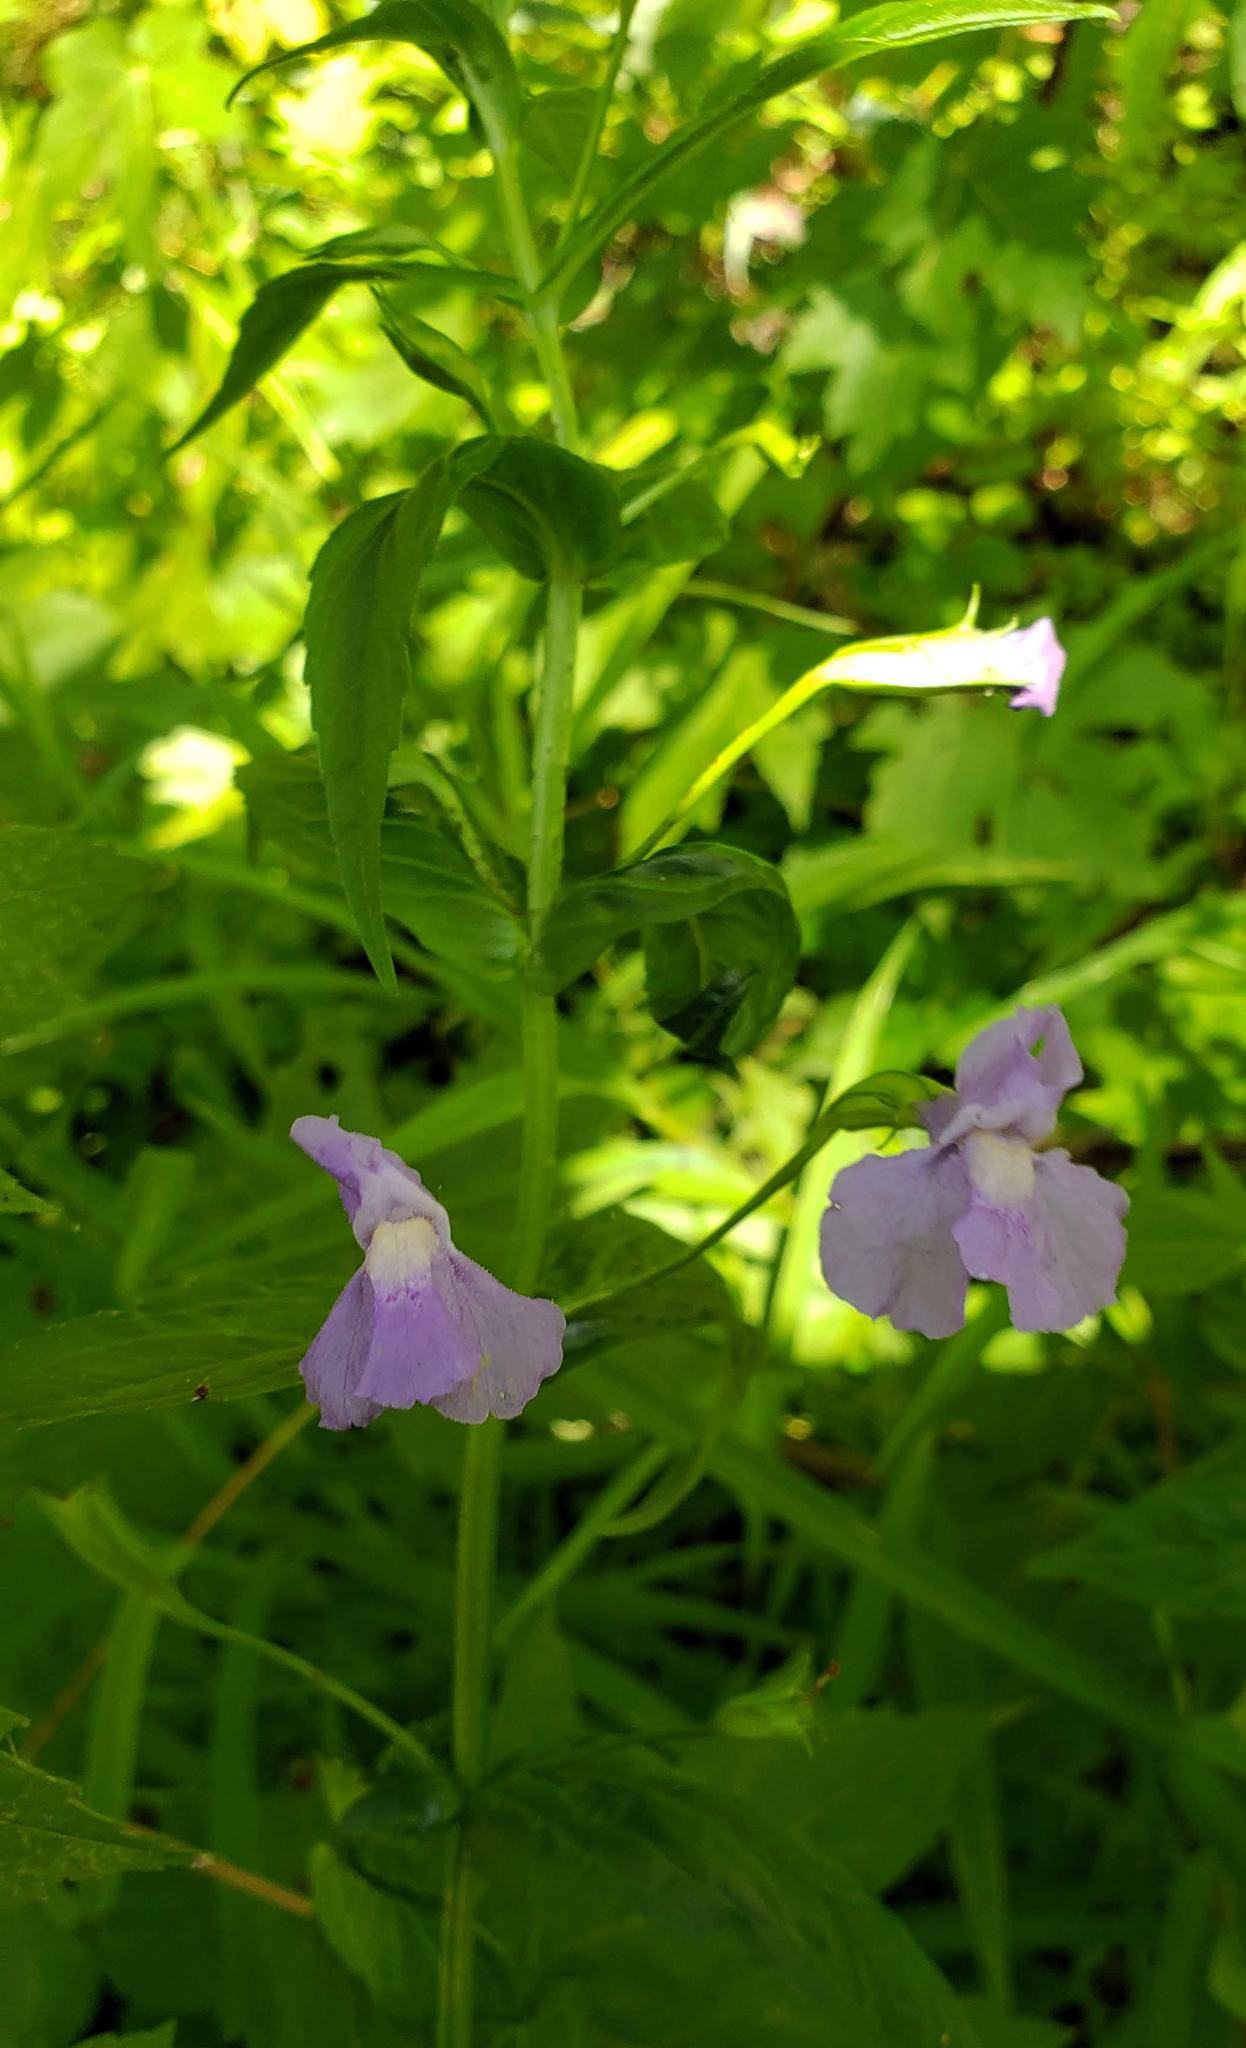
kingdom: Plantae
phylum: Tracheophyta
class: Magnoliopsida
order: Lamiales
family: Phrymaceae
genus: Mimulus
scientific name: Mimulus ringens
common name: Allegheny monkeyflower
